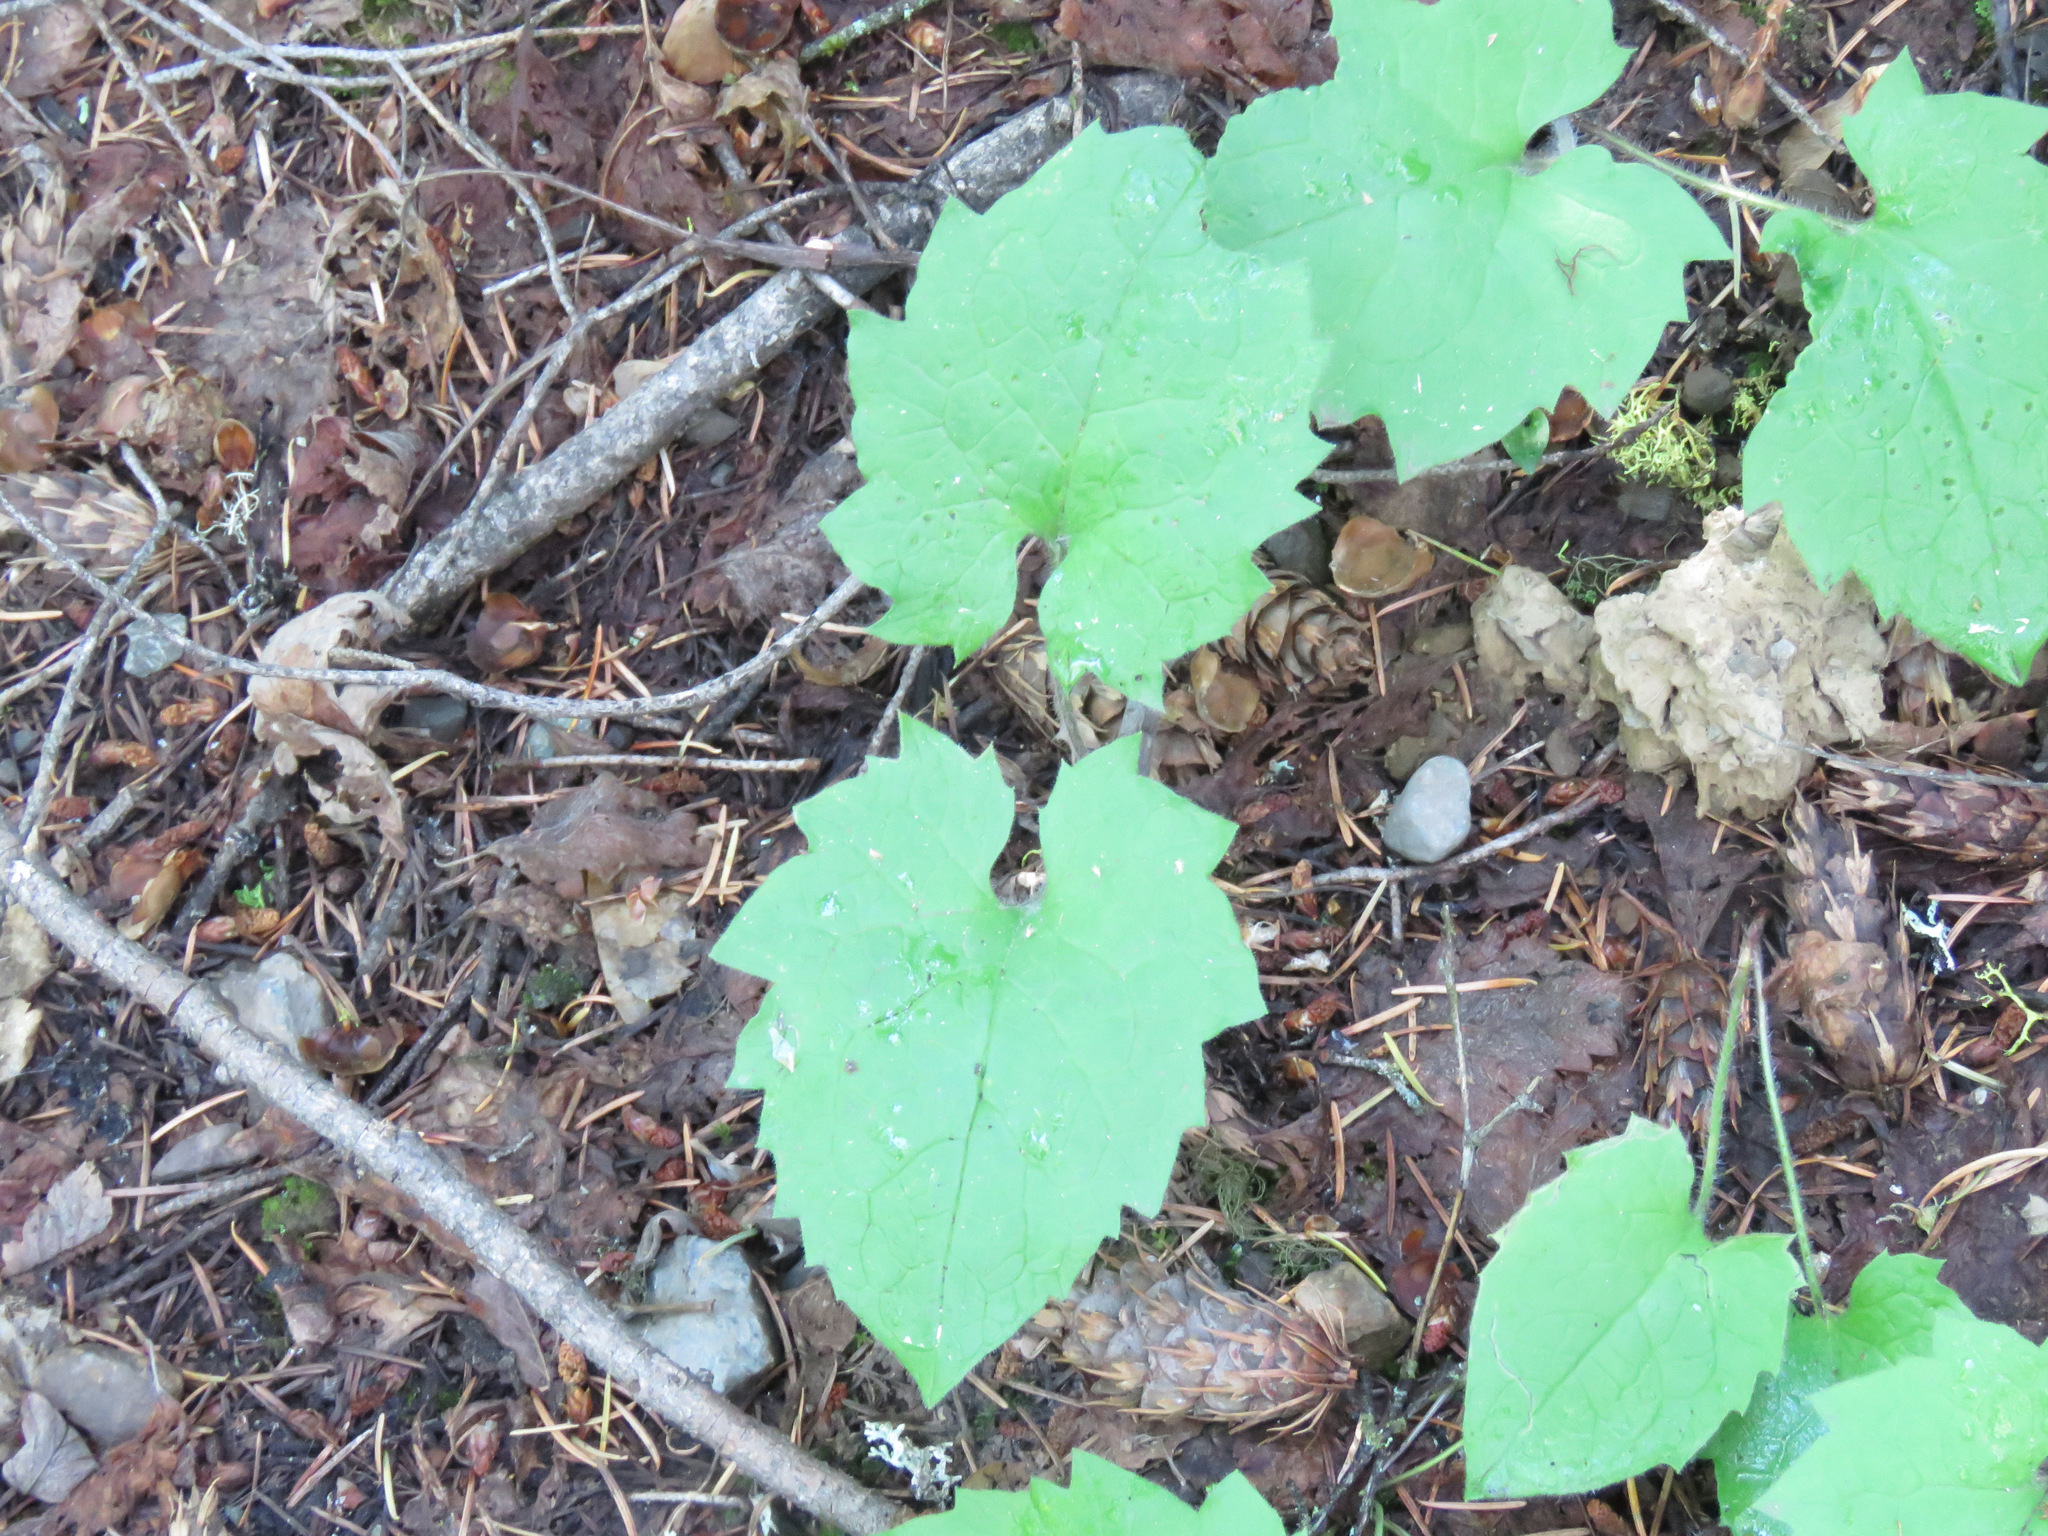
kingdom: Plantae
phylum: Tracheophyta
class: Magnoliopsida
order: Asterales
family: Asteraceae
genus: Arnica
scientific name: Arnica cordifolia
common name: Heart-leaf arnica
